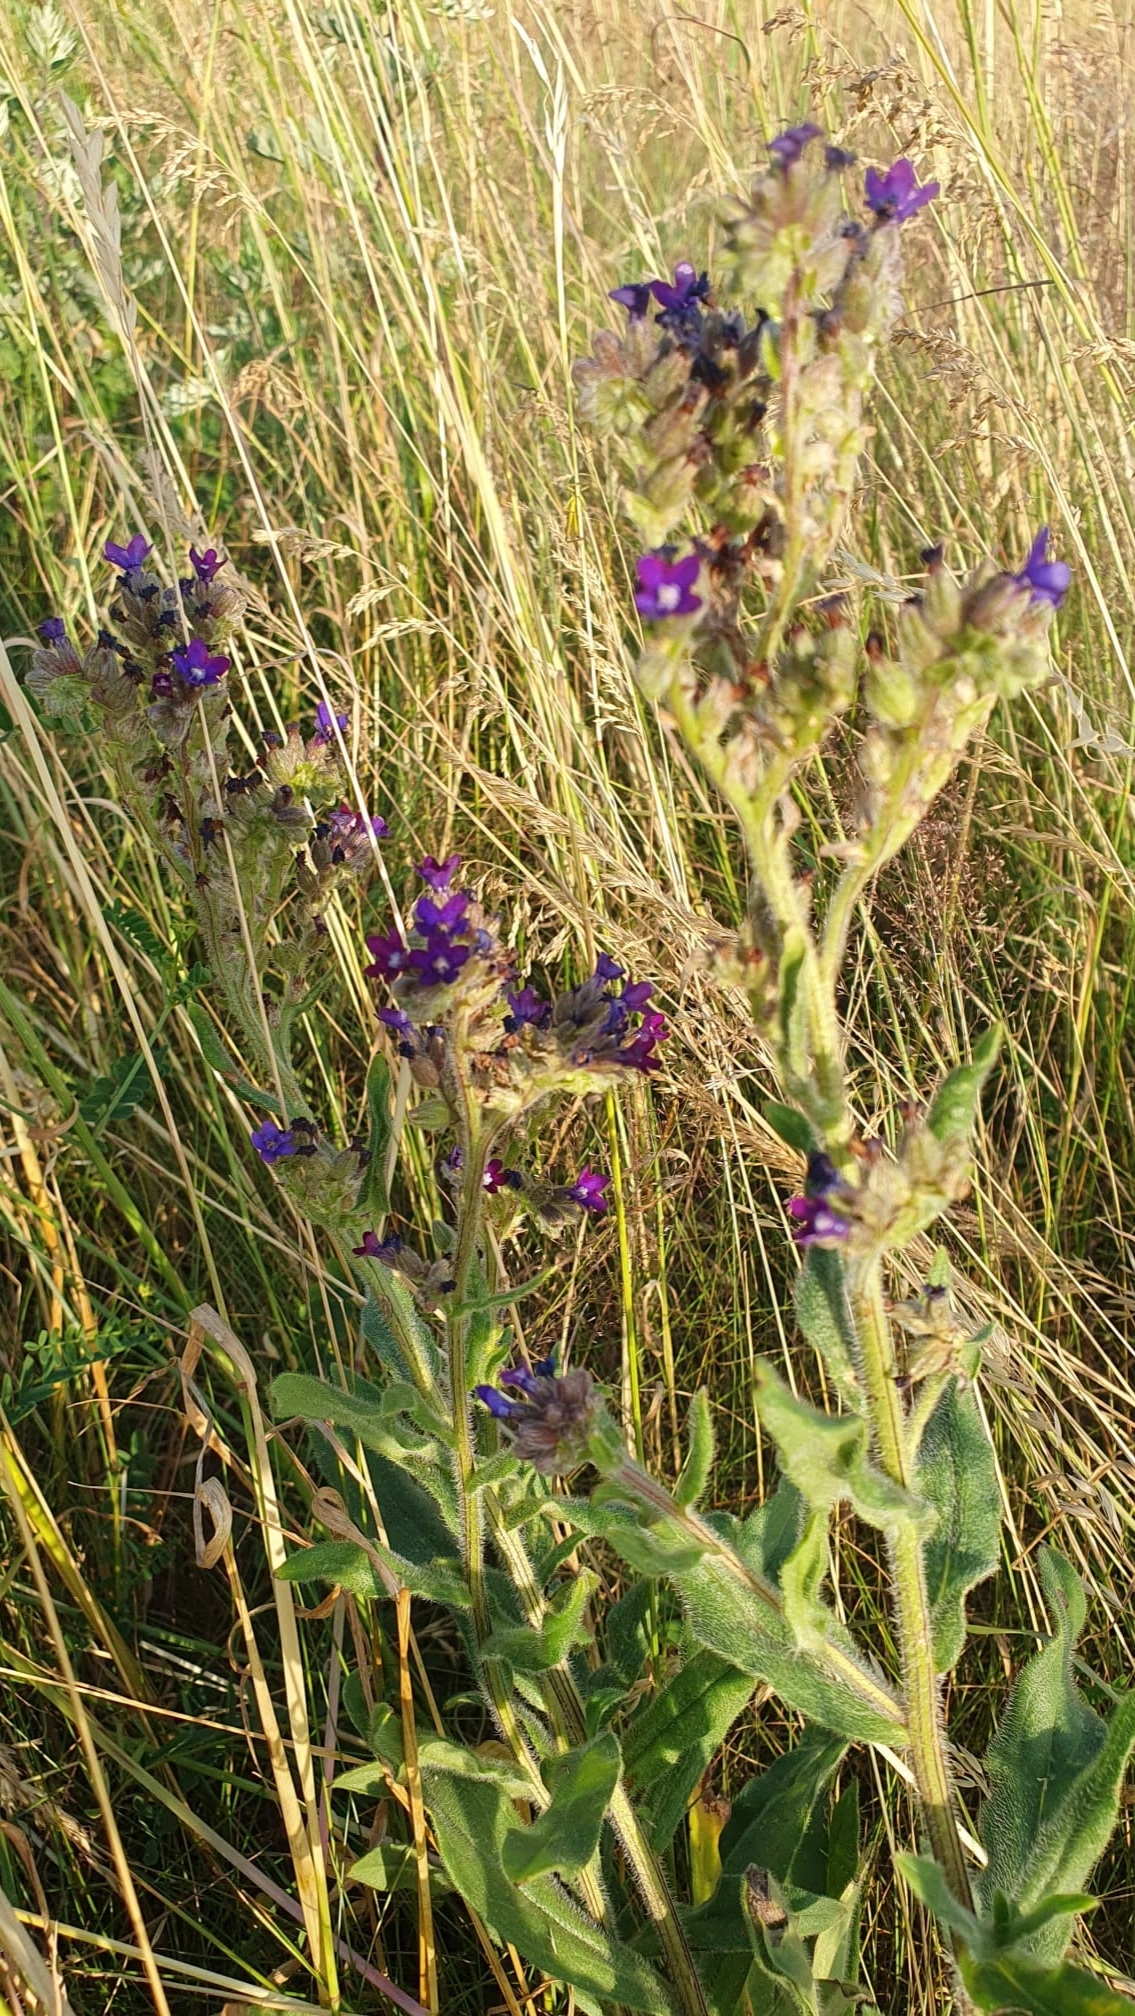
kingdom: Plantae
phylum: Tracheophyta
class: Magnoliopsida
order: Boraginales
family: Boraginaceae
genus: Anchusa
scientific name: Anchusa officinalis
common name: Alkanet
